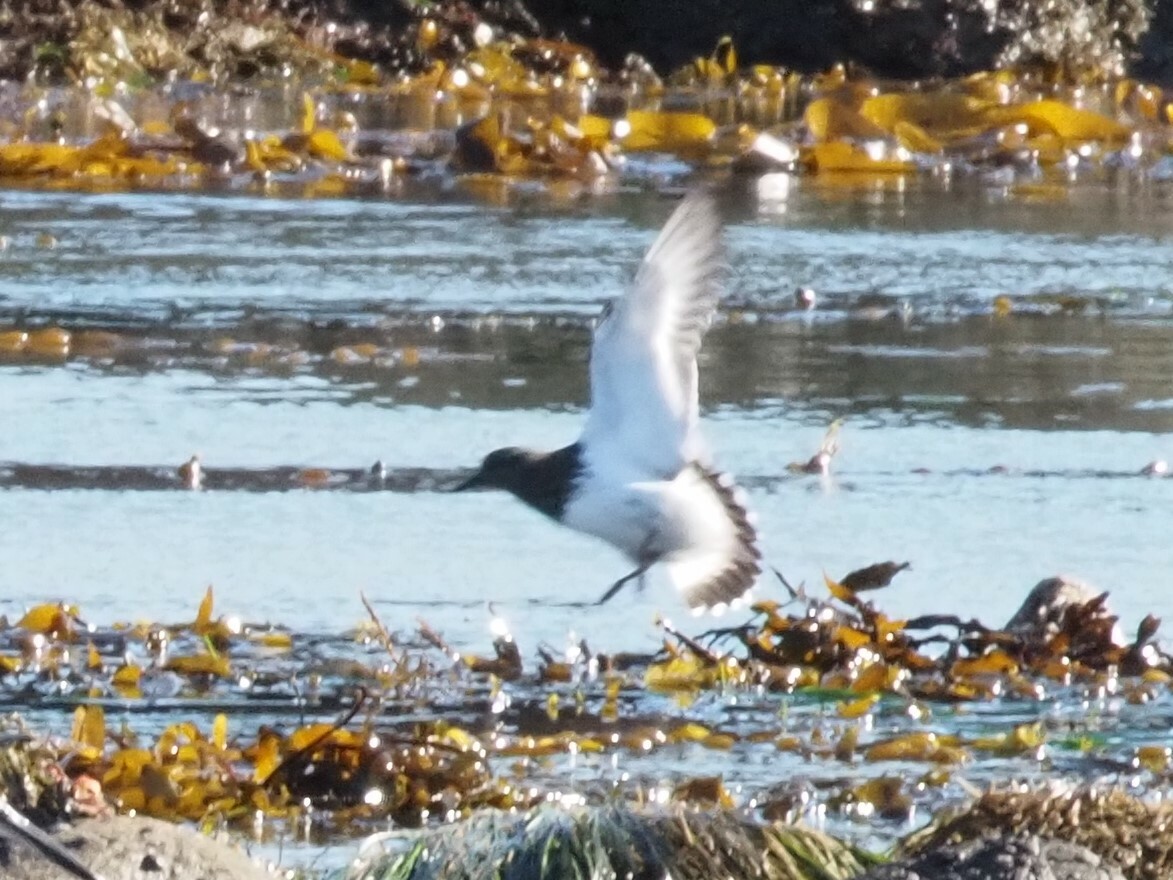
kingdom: Animalia
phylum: Chordata
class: Aves
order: Charadriiformes
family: Scolopacidae
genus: Arenaria
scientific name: Arenaria melanocephala
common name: Black turnstone
